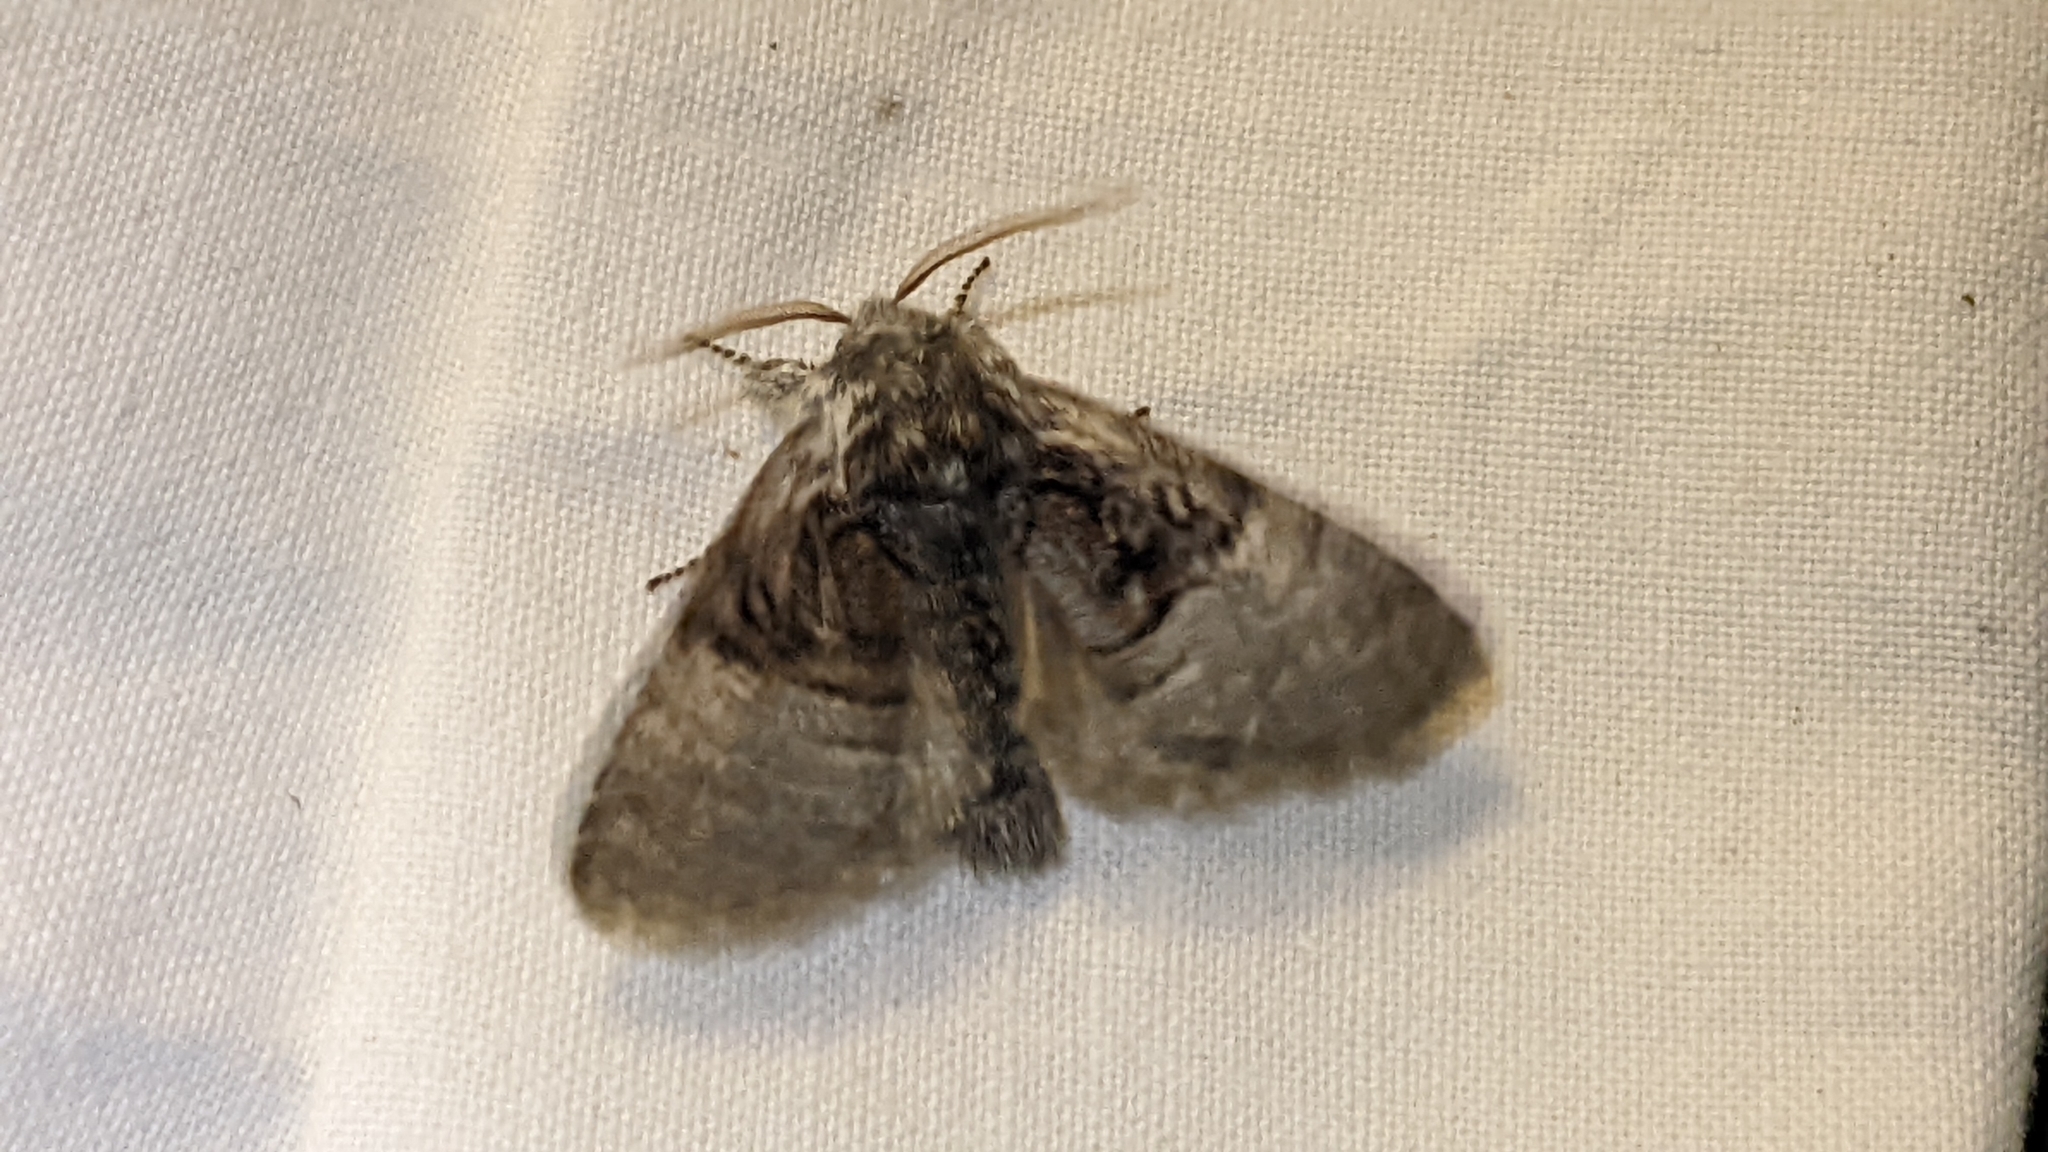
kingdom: Animalia
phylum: Arthropoda
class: Insecta
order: Lepidoptera
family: Noctuidae
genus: Colocasia
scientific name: Colocasia coryli
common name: Nut-tree tussock
